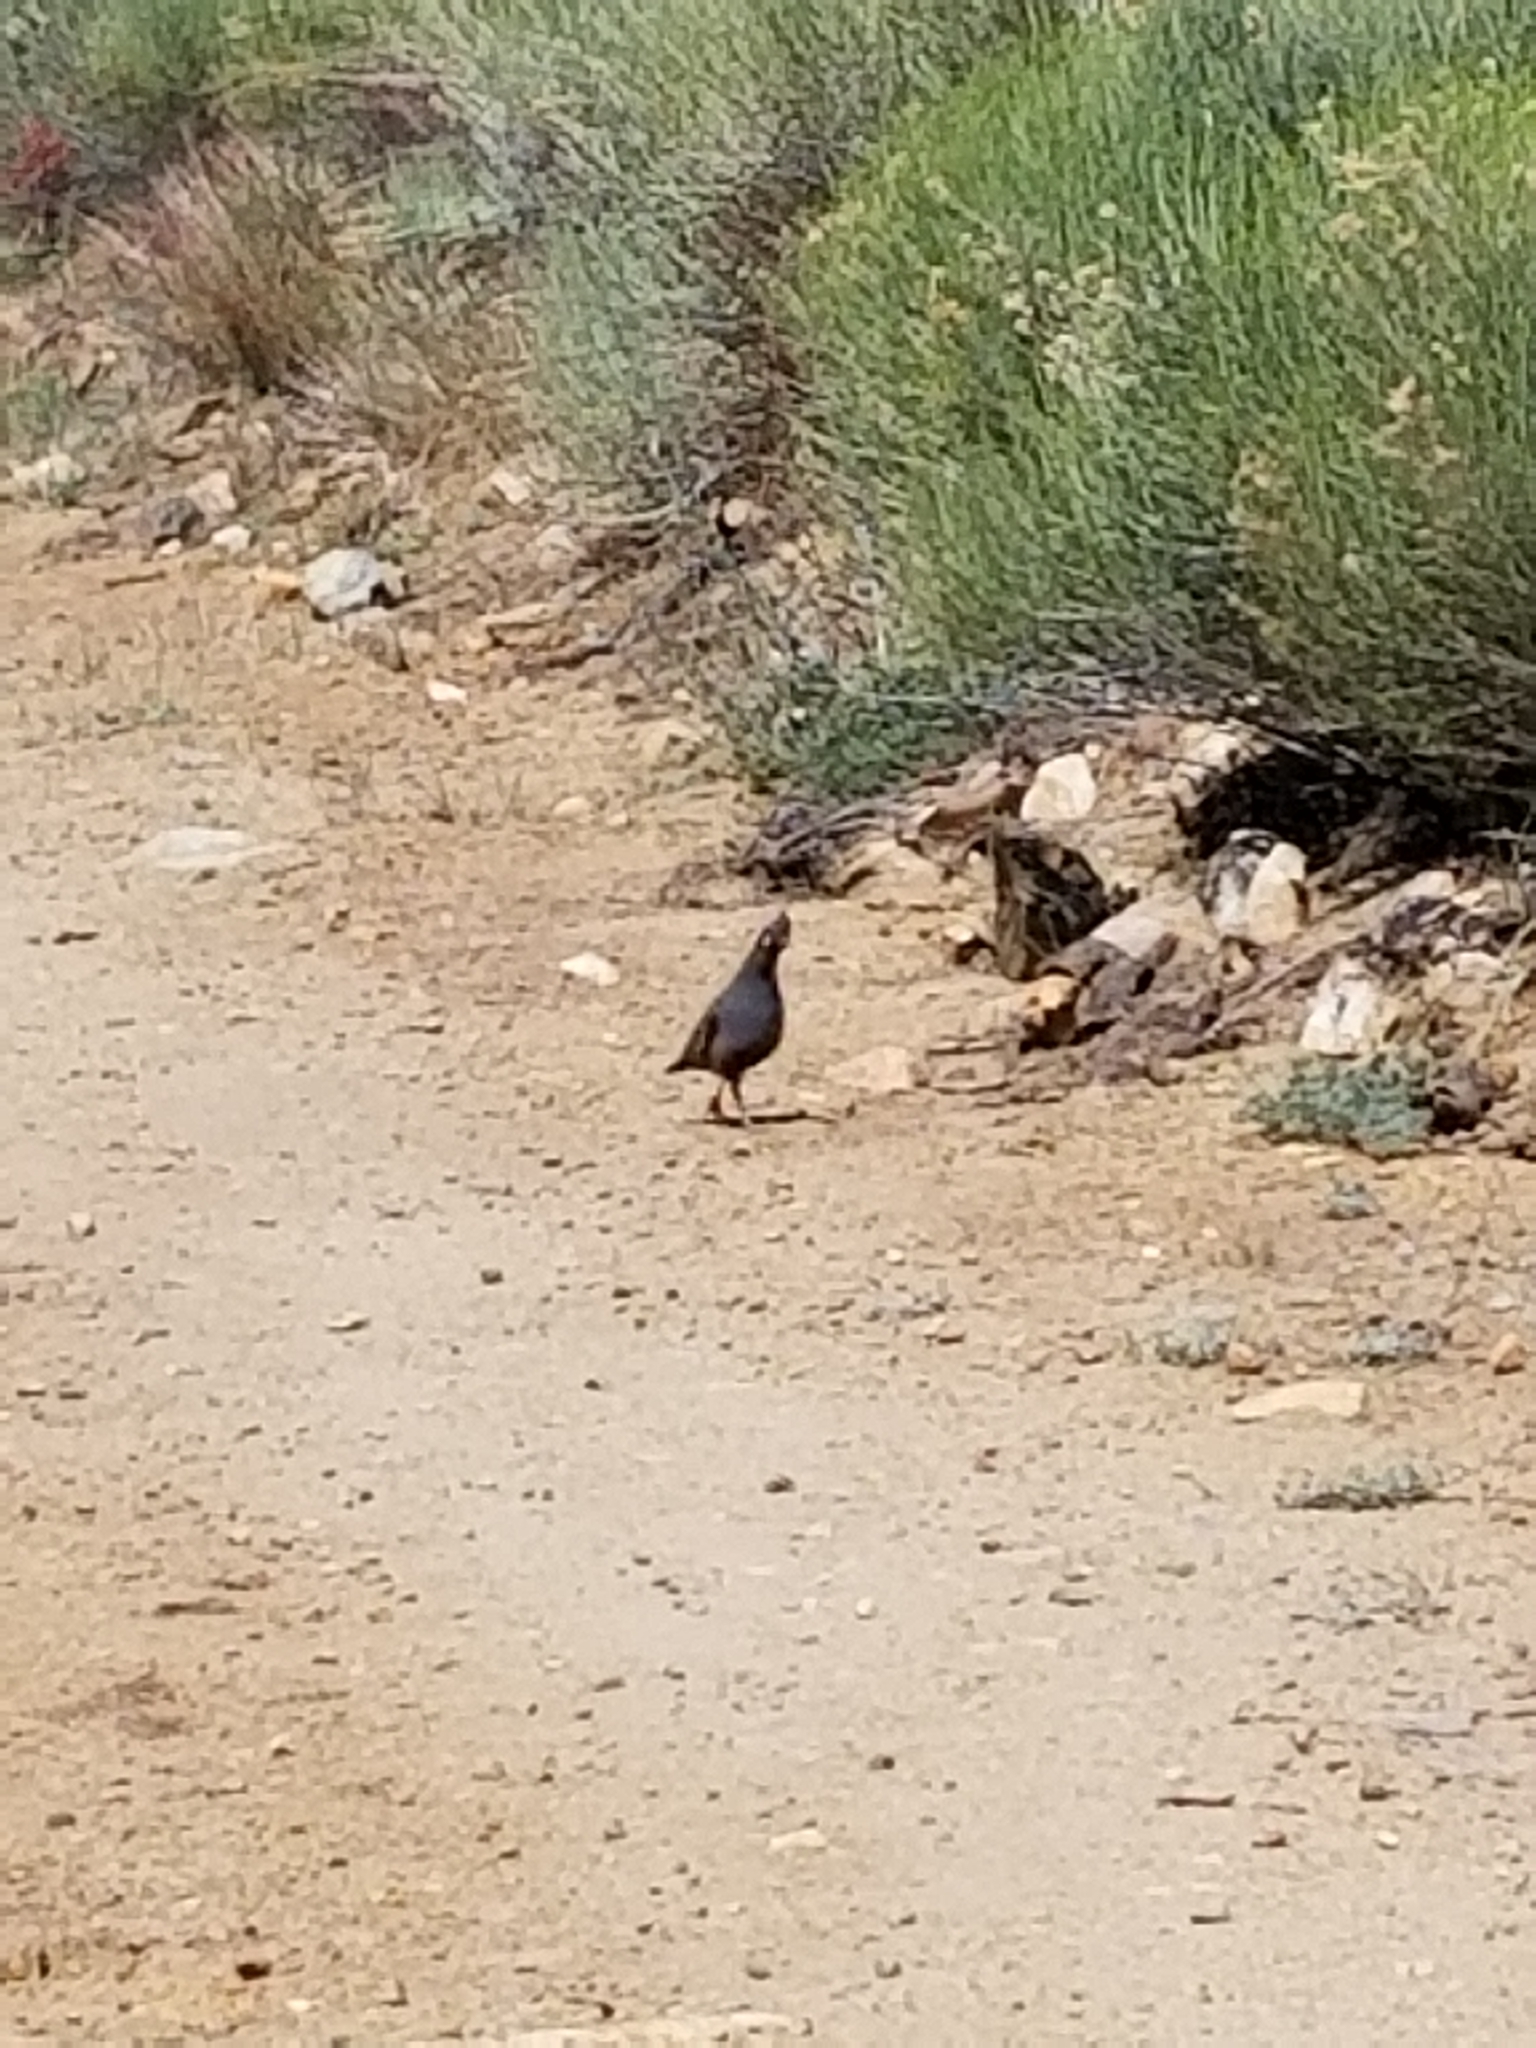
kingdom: Animalia
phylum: Chordata
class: Aves
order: Galliformes
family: Odontophoridae
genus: Oreortyx
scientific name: Oreortyx pictus
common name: Mountain quail
